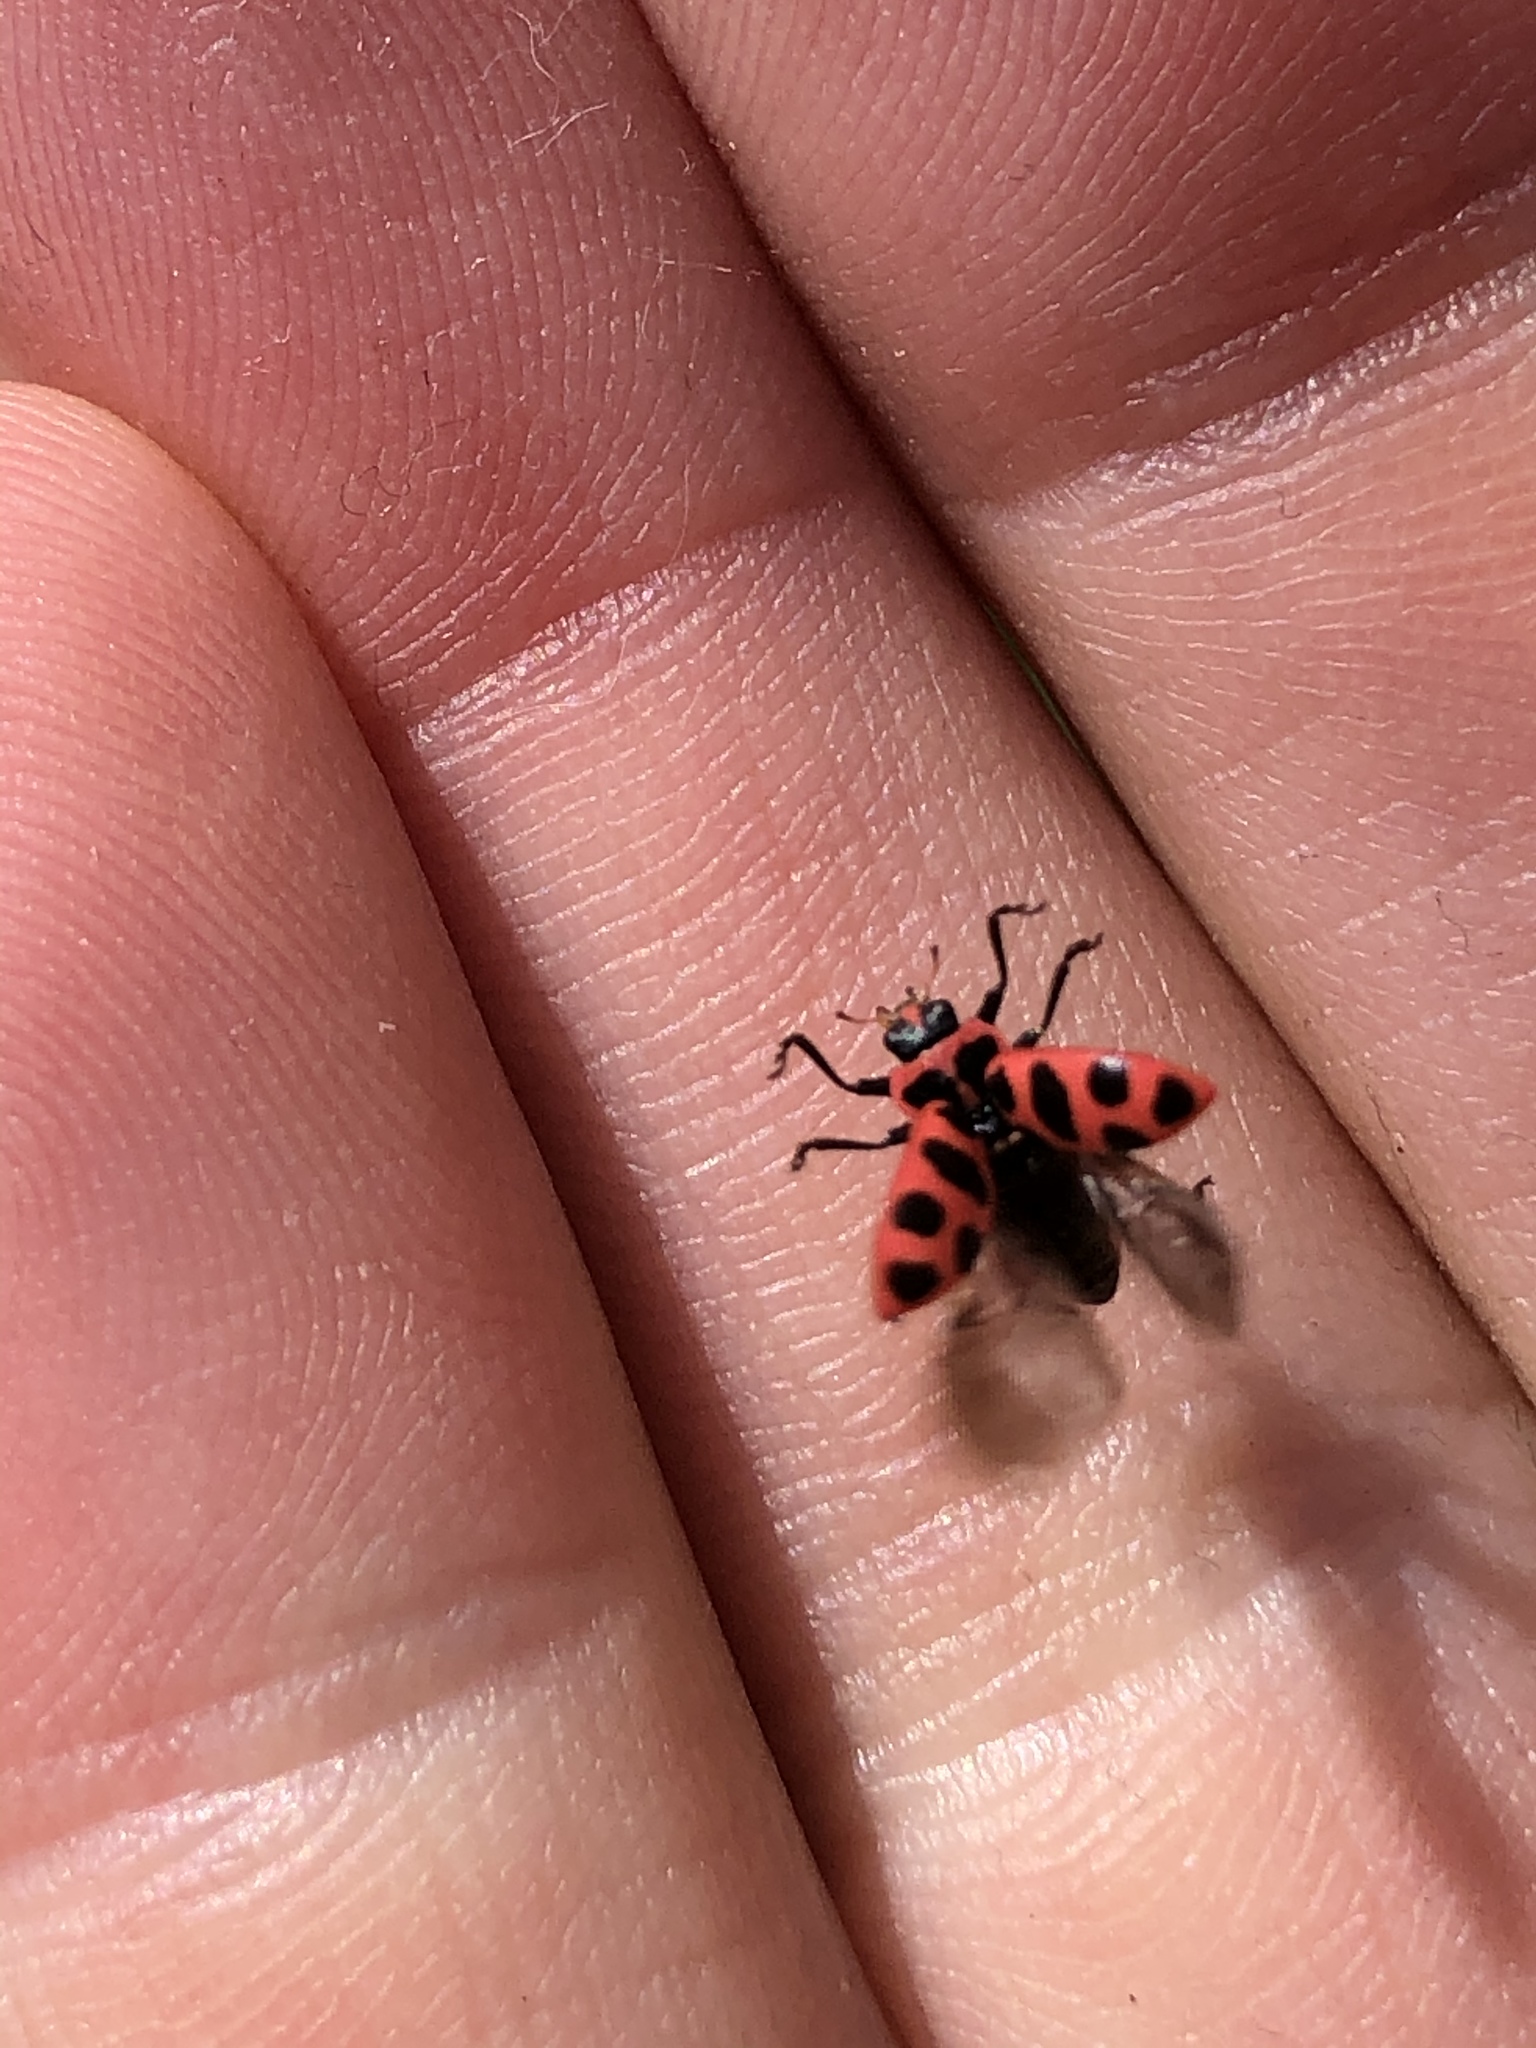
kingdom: Animalia
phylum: Arthropoda
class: Insecta
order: Coleoptera
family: Coccinellidae
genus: Coleomegilla
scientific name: Coleomegilla maculata
